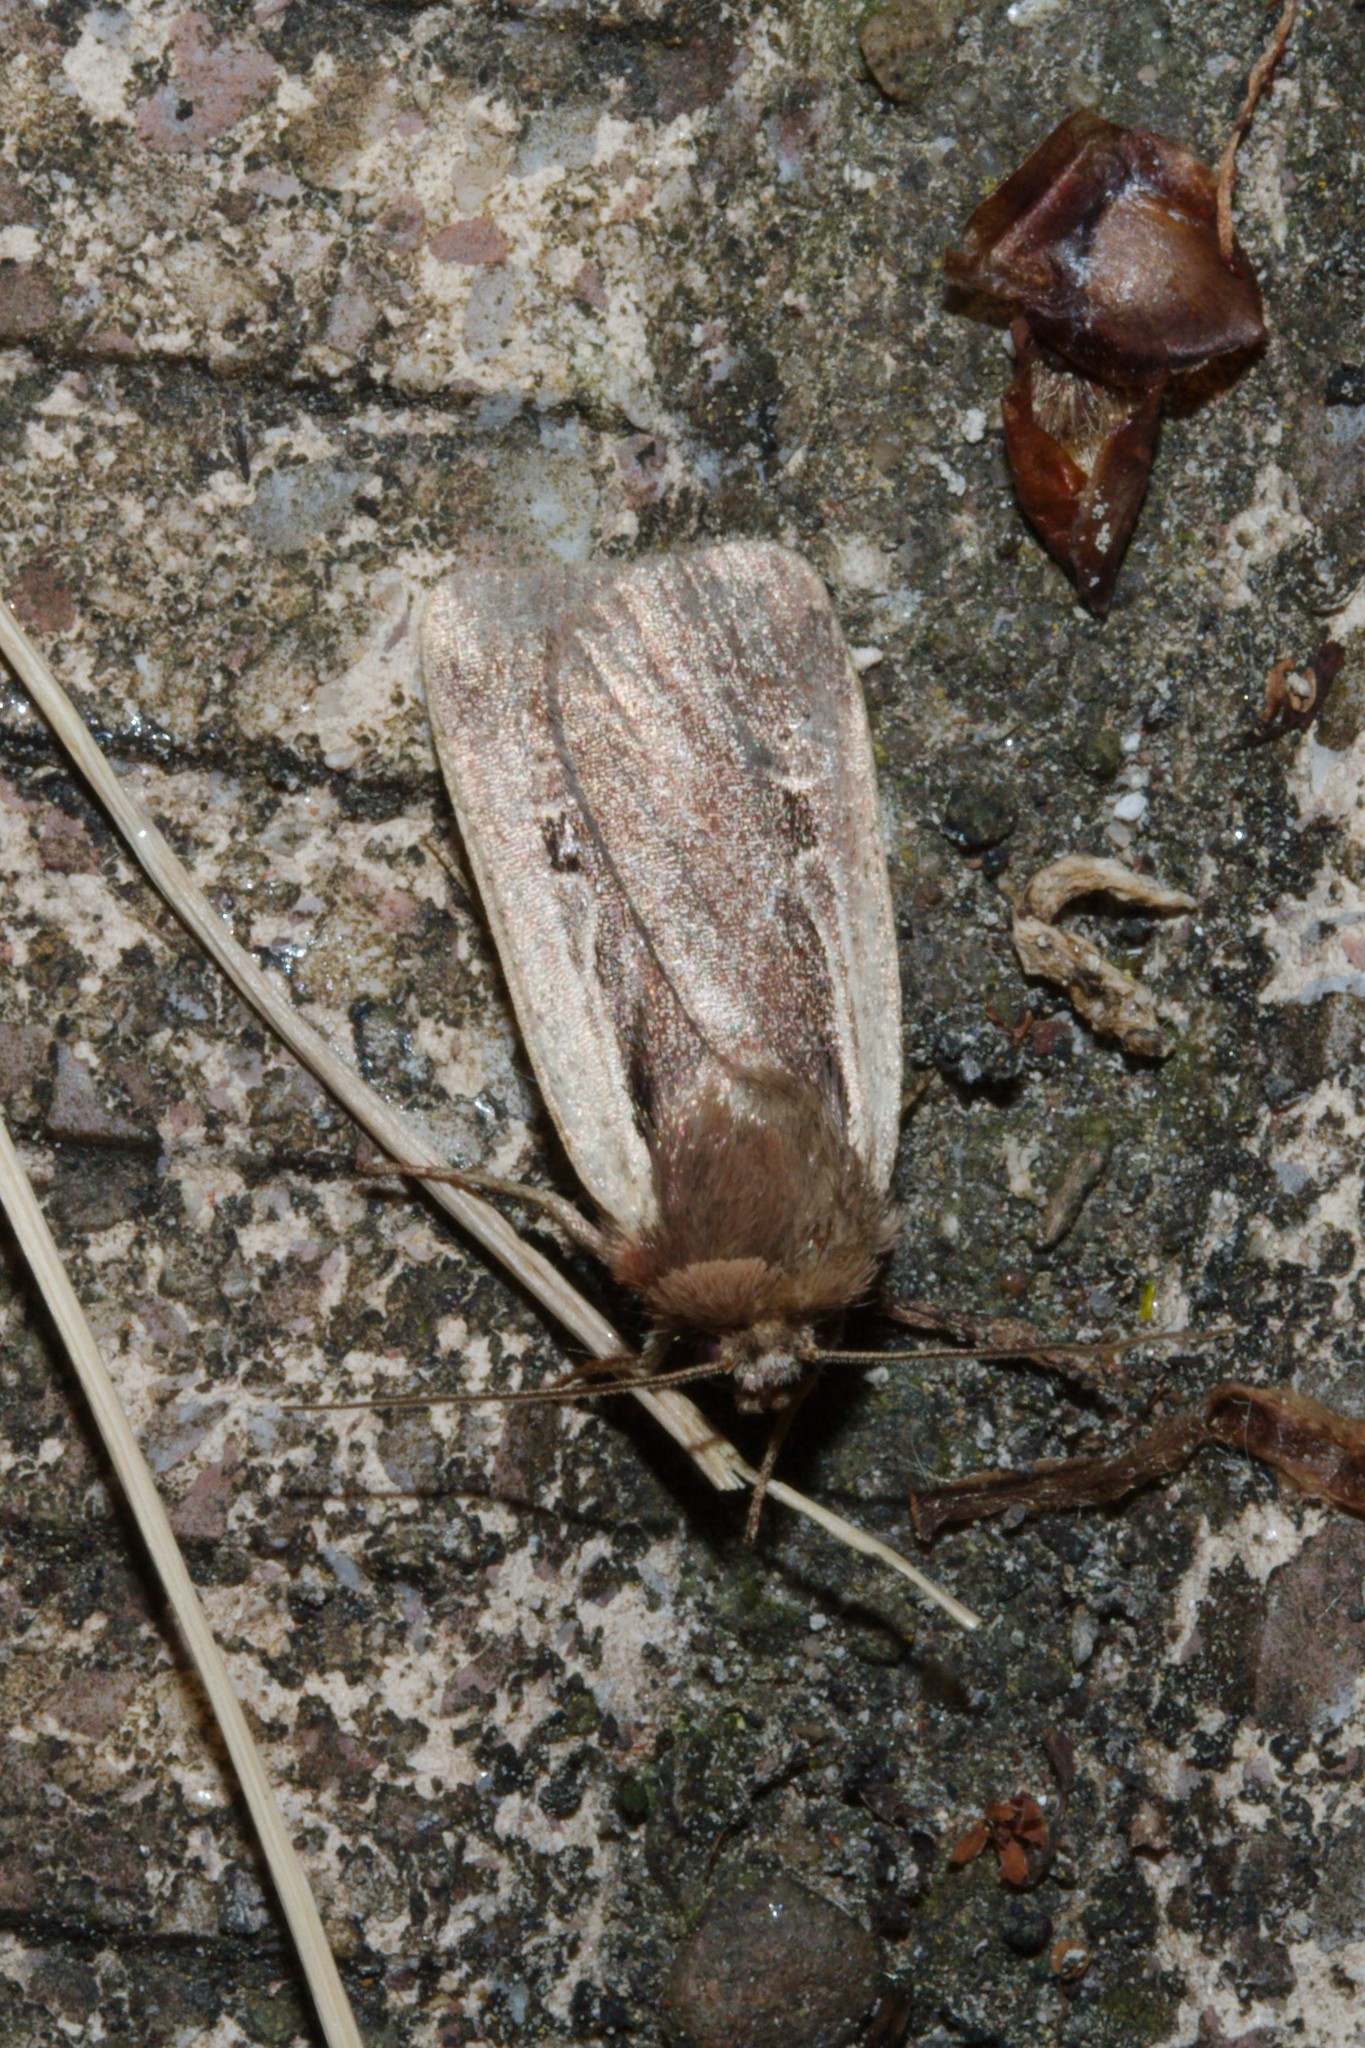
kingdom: Animalia
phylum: Arthropoda
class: Insecta
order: Lepidoptera
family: Noctuidae
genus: Ochropleura
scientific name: Ochropleura plecta
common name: Flame shoulder
